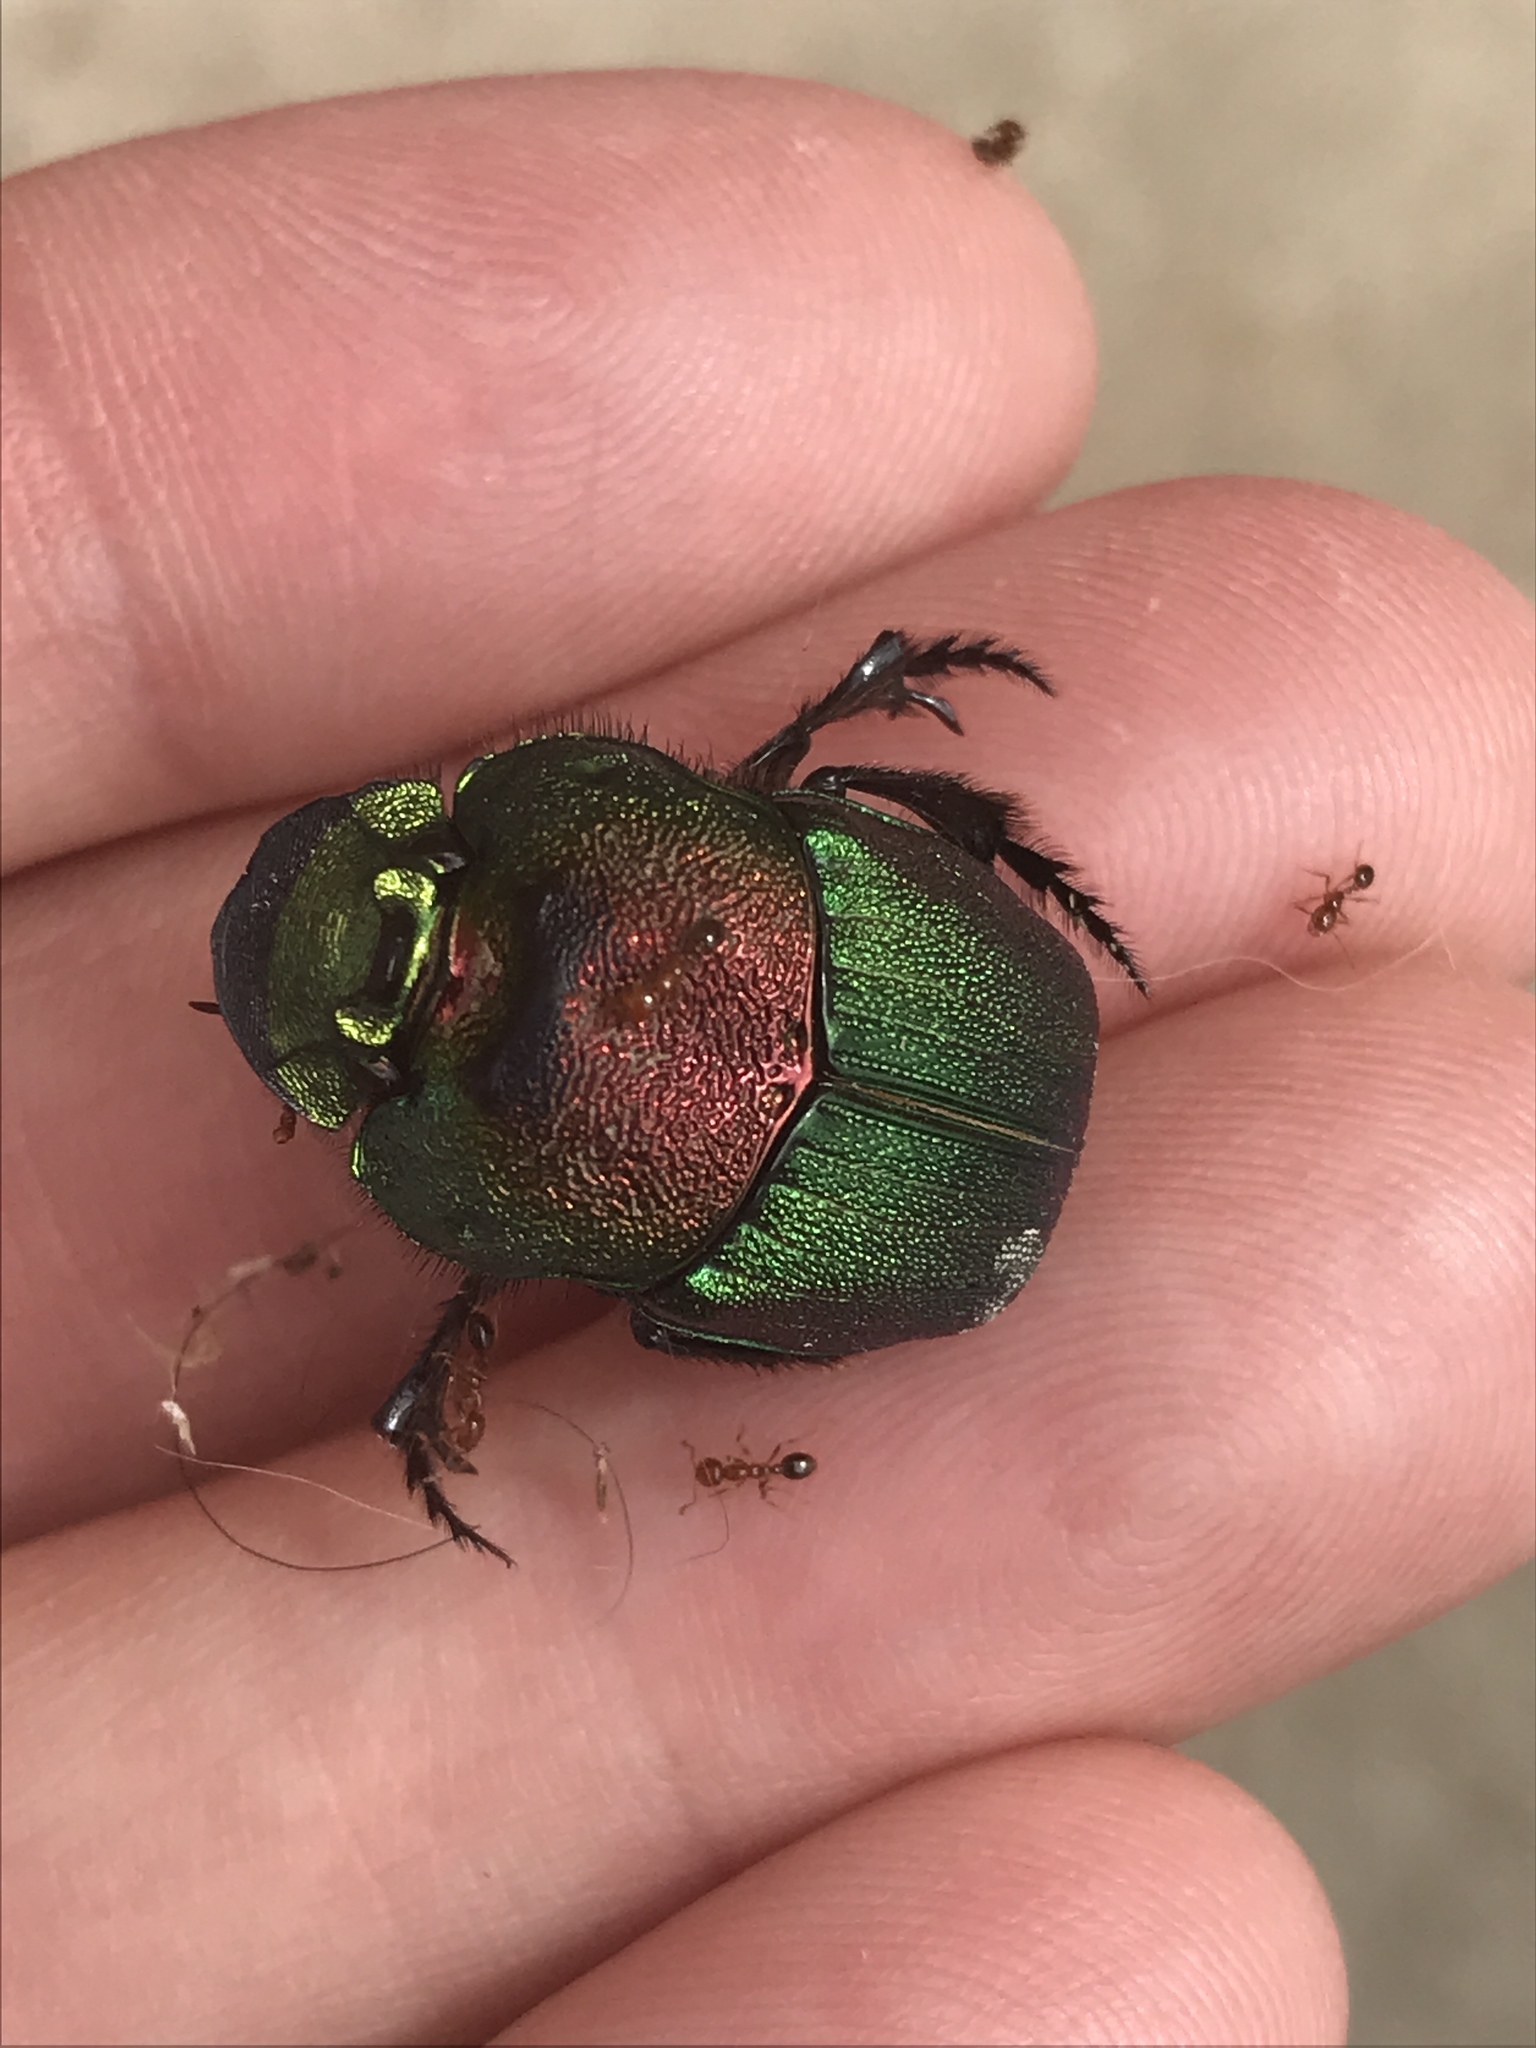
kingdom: Animalia
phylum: Arthropoda
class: Insecta
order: Coleoptera
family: Scarabaeidae
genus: Phanaeus
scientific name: Phanaeus difformis
